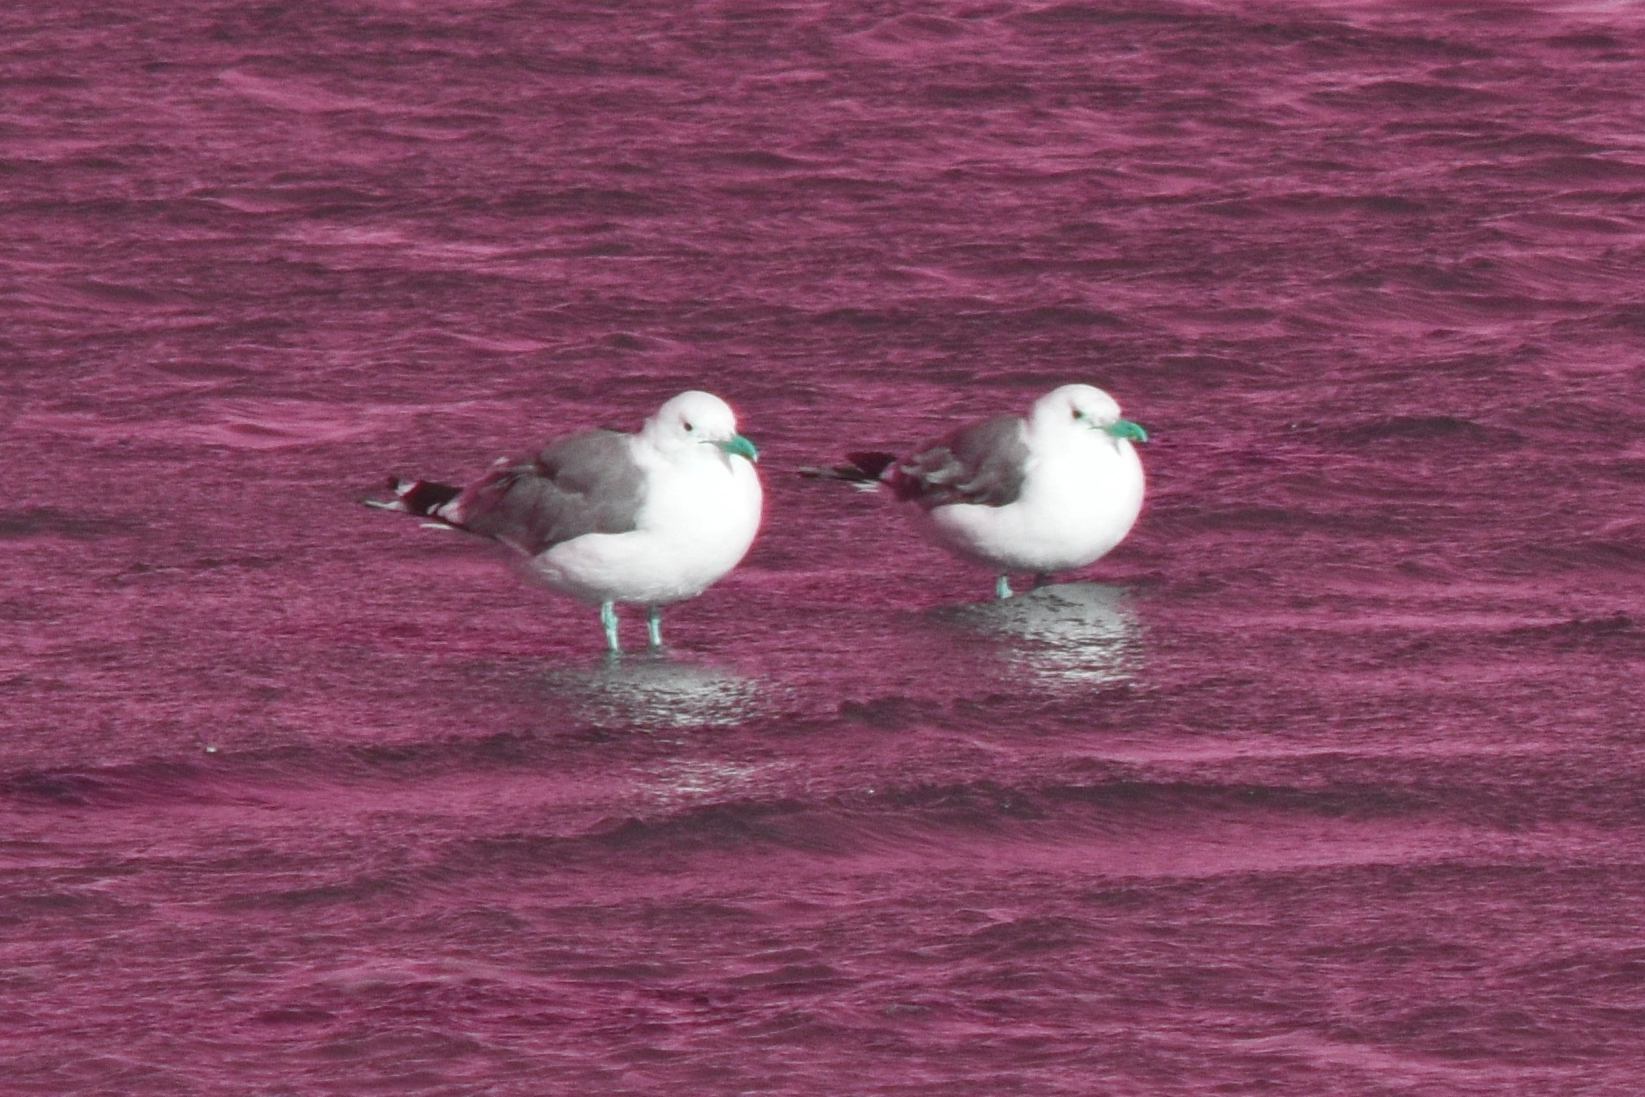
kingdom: Animalia
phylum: Chordata
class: Aves
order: Charadriiformes
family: Laridae
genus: Larus
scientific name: Larus californicus
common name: California gull
